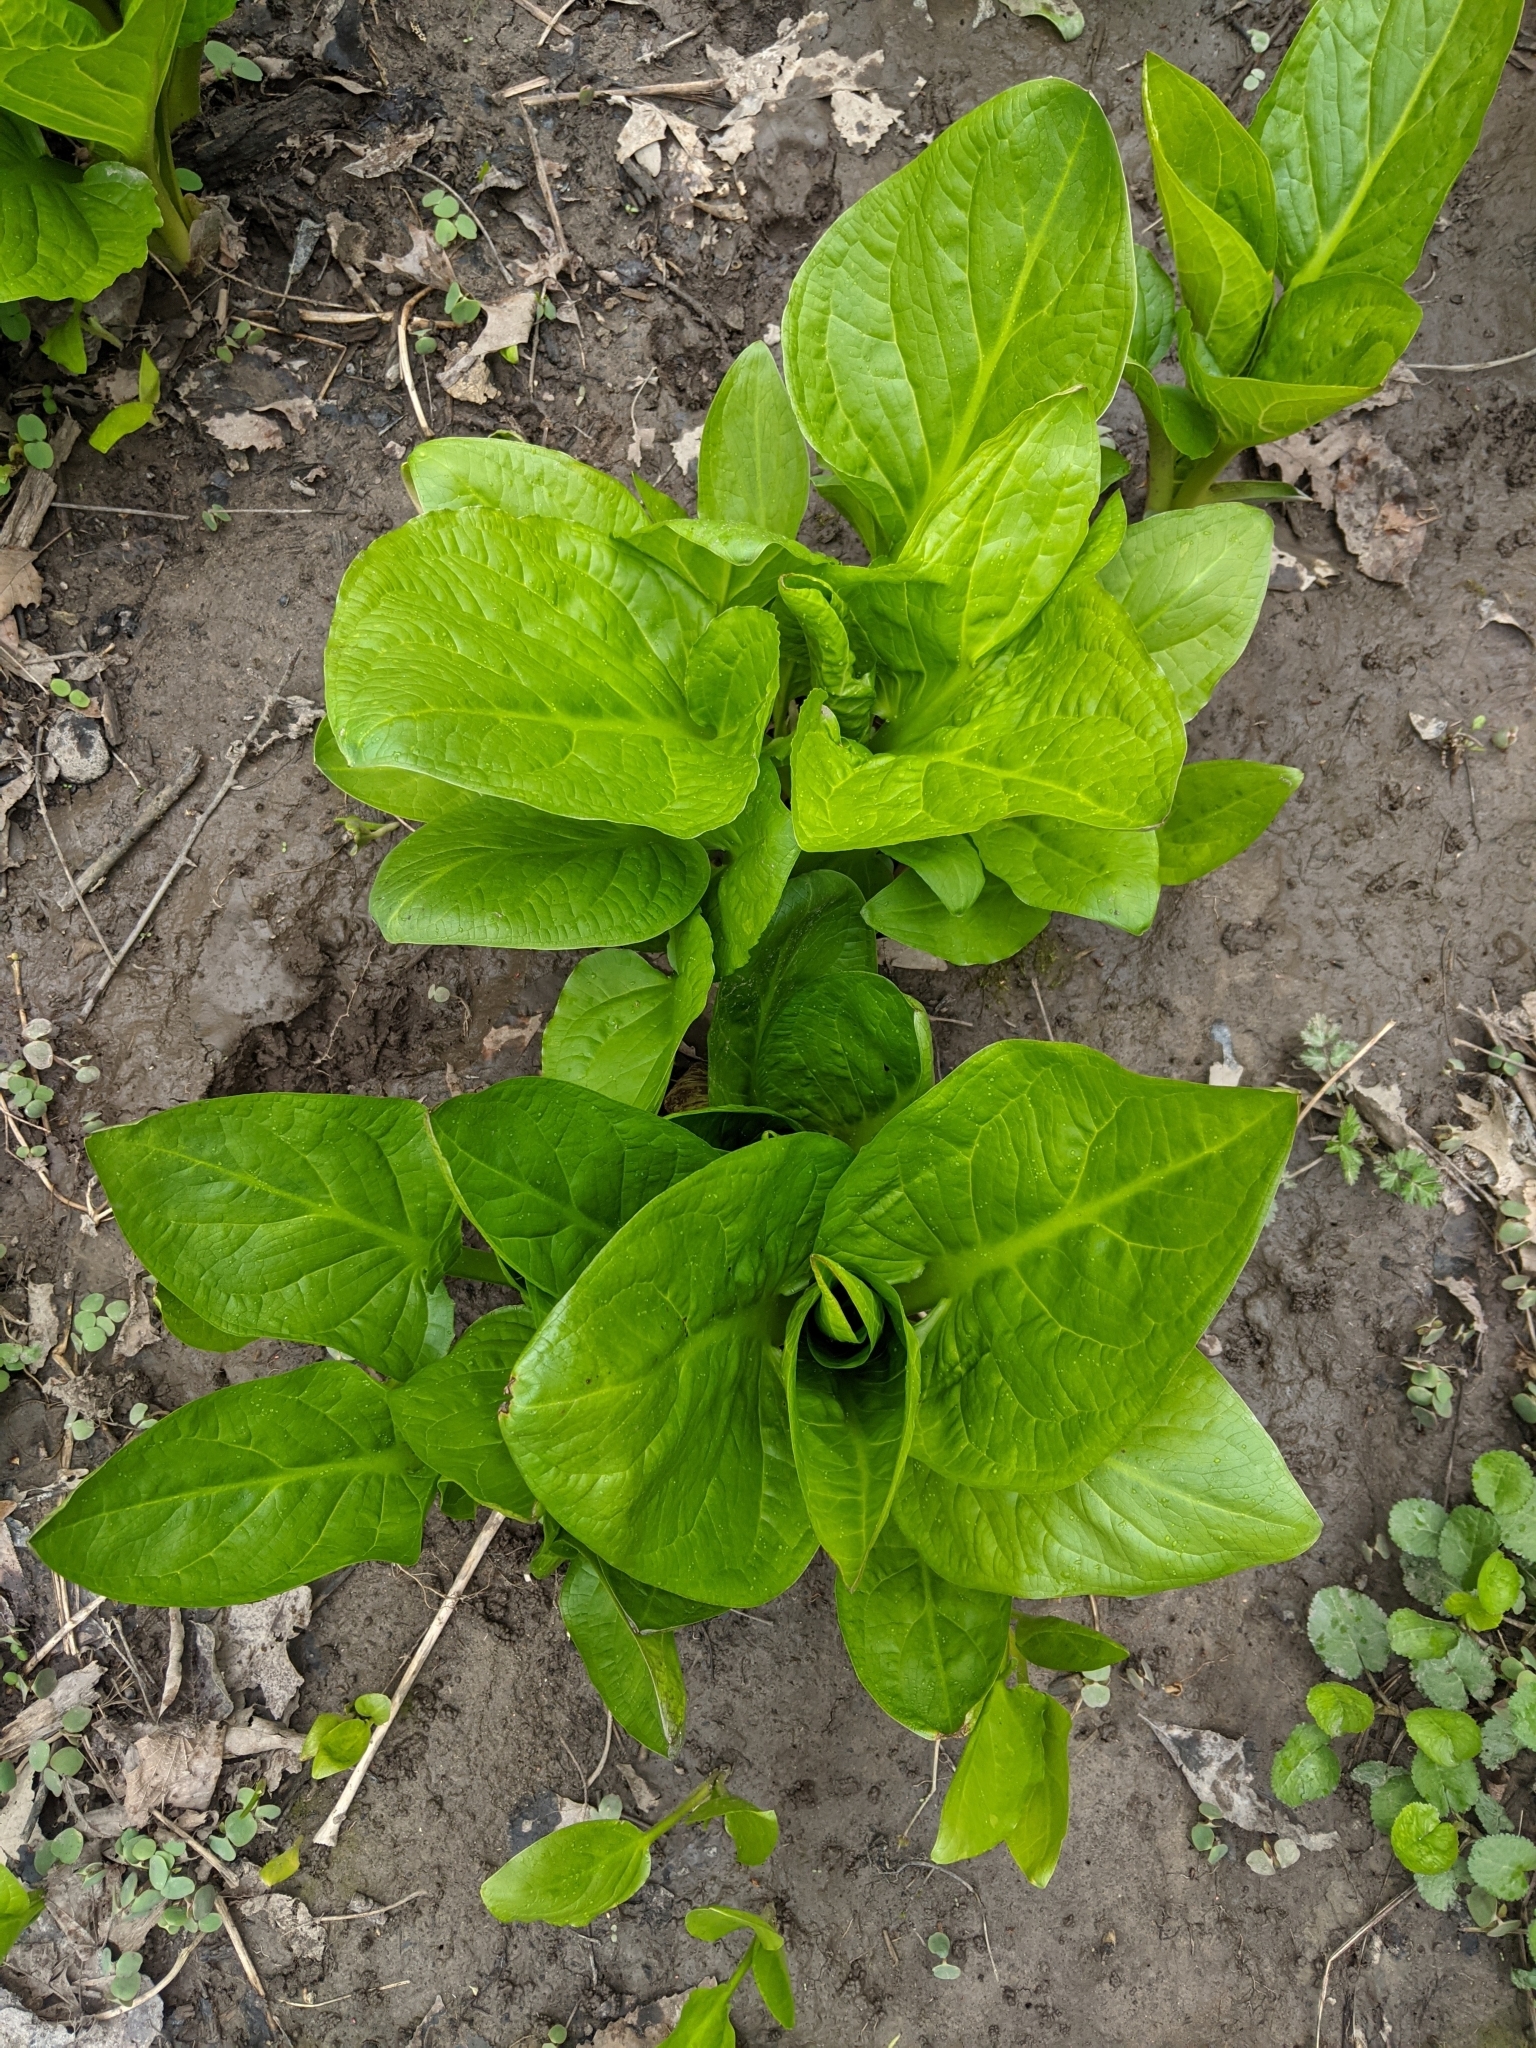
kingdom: Plantae
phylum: Tracheophyta
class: Liliopsida
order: Alismatales
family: Araceae
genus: Symplocarpus
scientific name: Symplocarpus foetidus
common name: Eastern skunk cabbage
